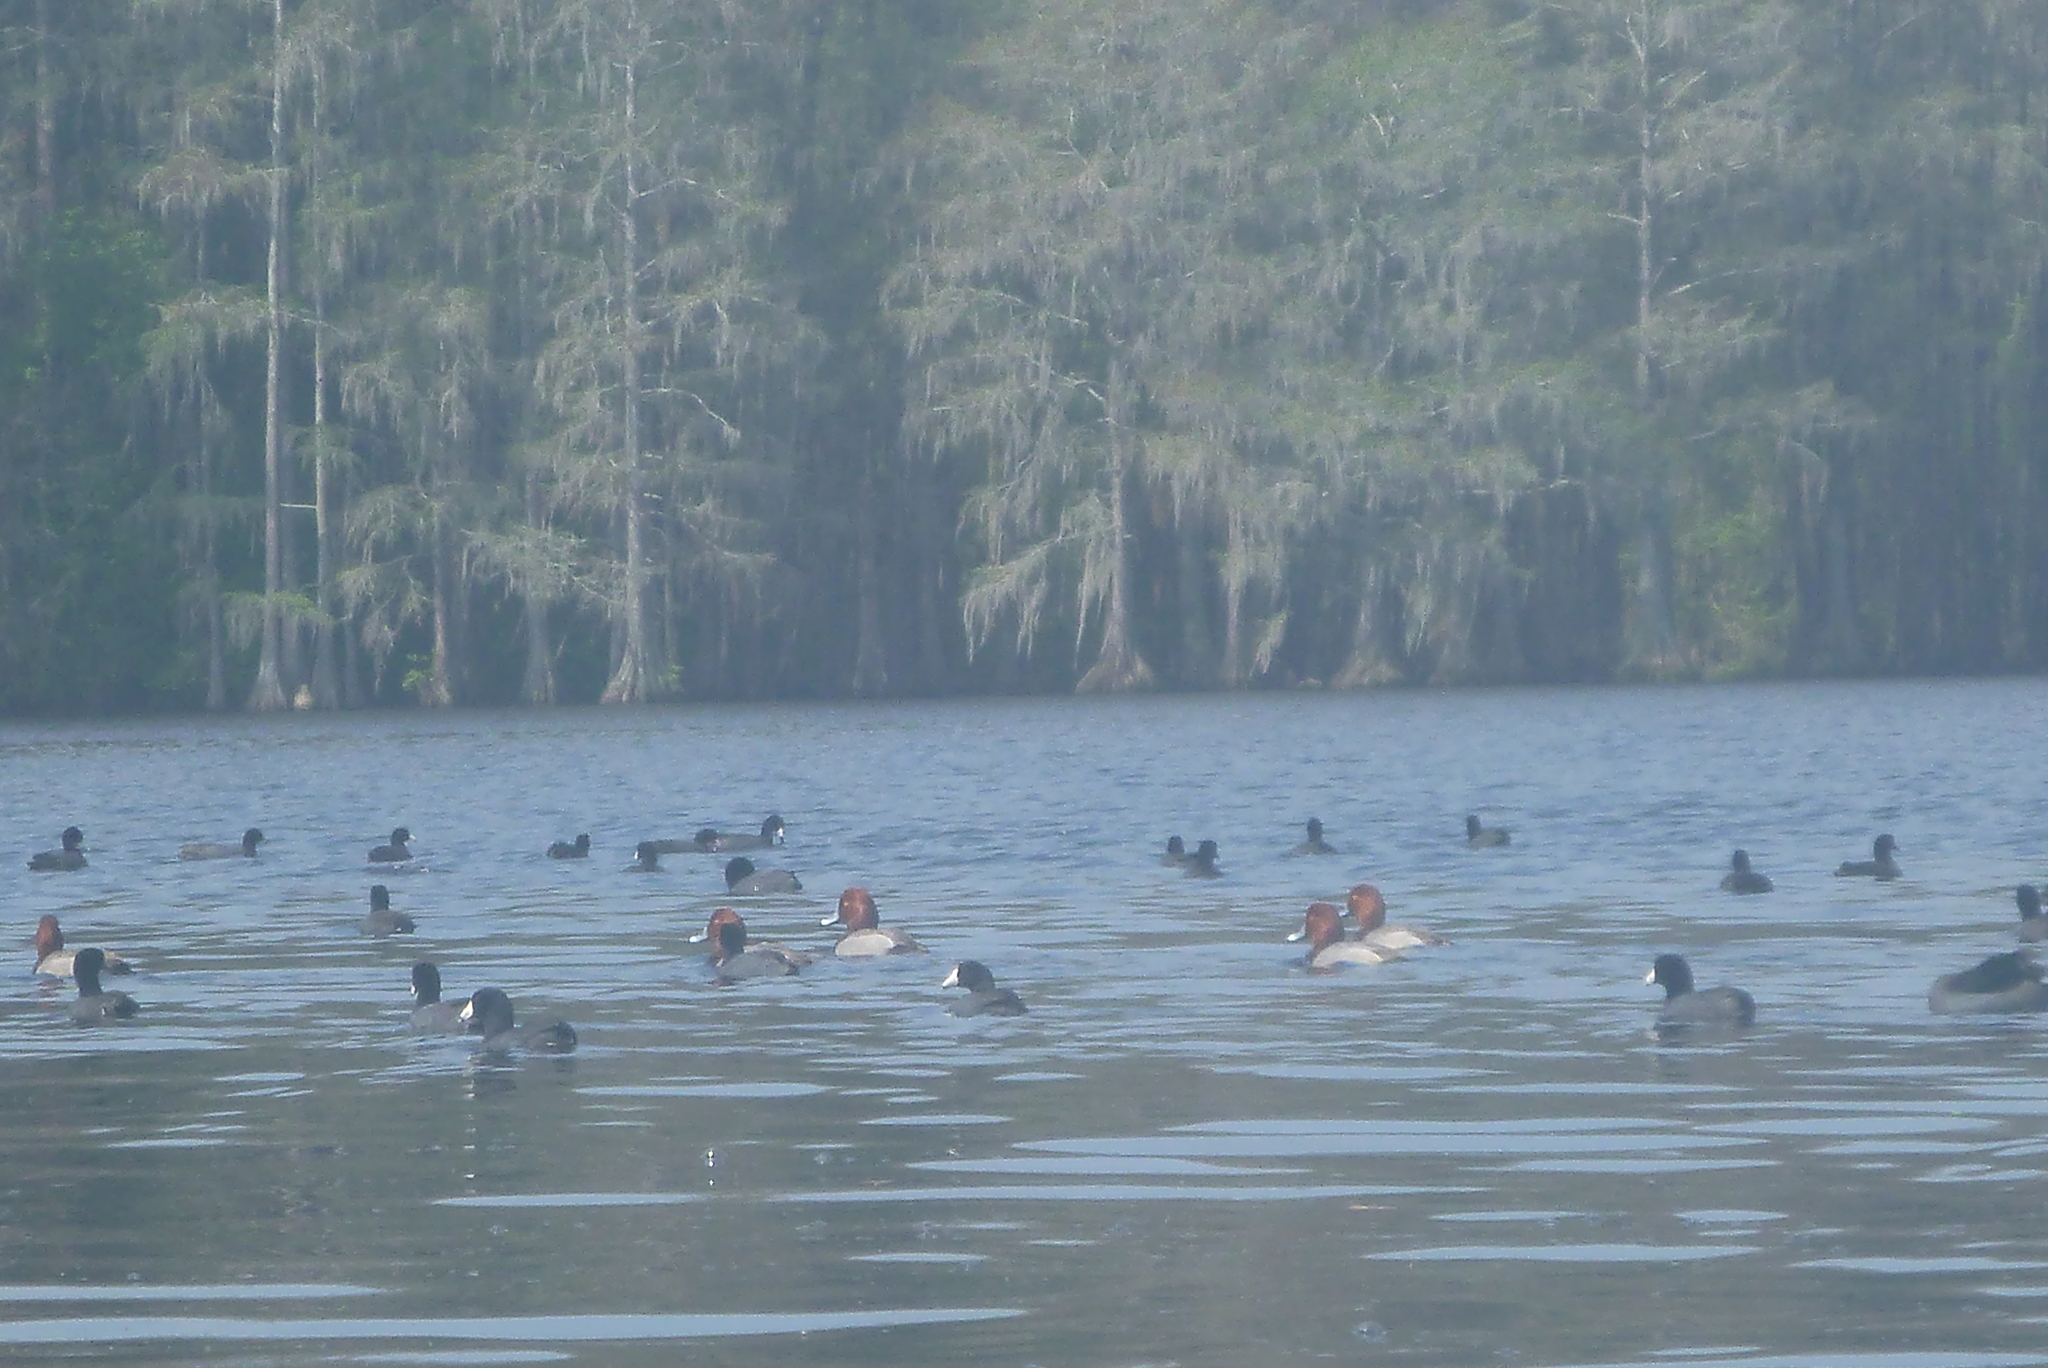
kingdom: Animalia
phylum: Chordata
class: Aves
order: Gruiformes
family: Rallidae
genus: Fulica
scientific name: Fulica americana
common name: American coot
